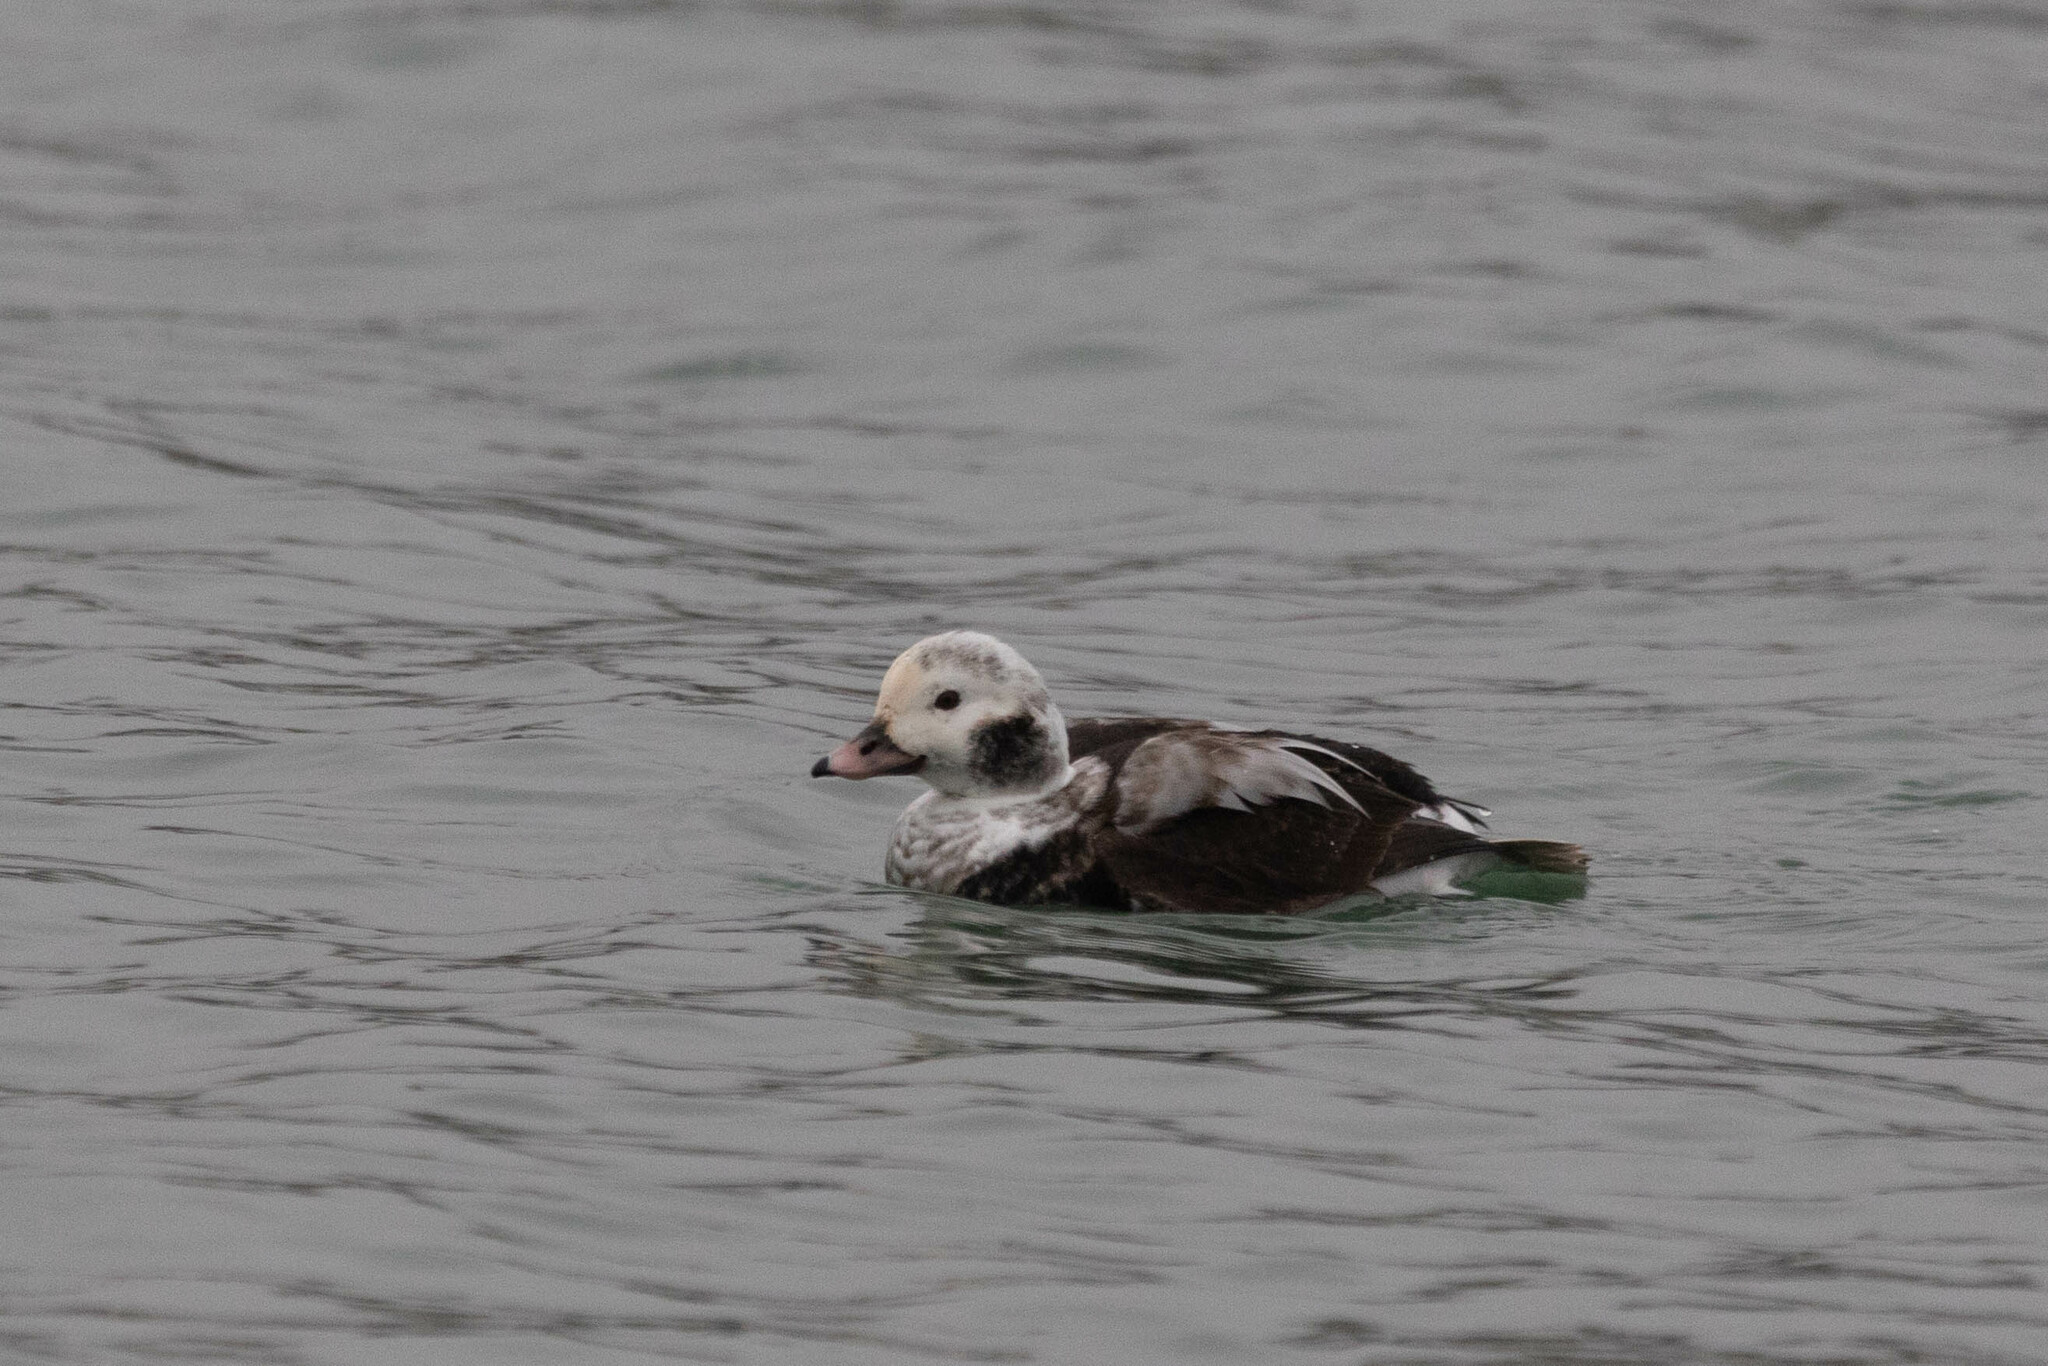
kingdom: Animalia
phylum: Chordata
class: Aves
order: Anseriformes
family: Anatidae
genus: Clangula
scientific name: Clangula hyemalis
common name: Long-tailed duck
